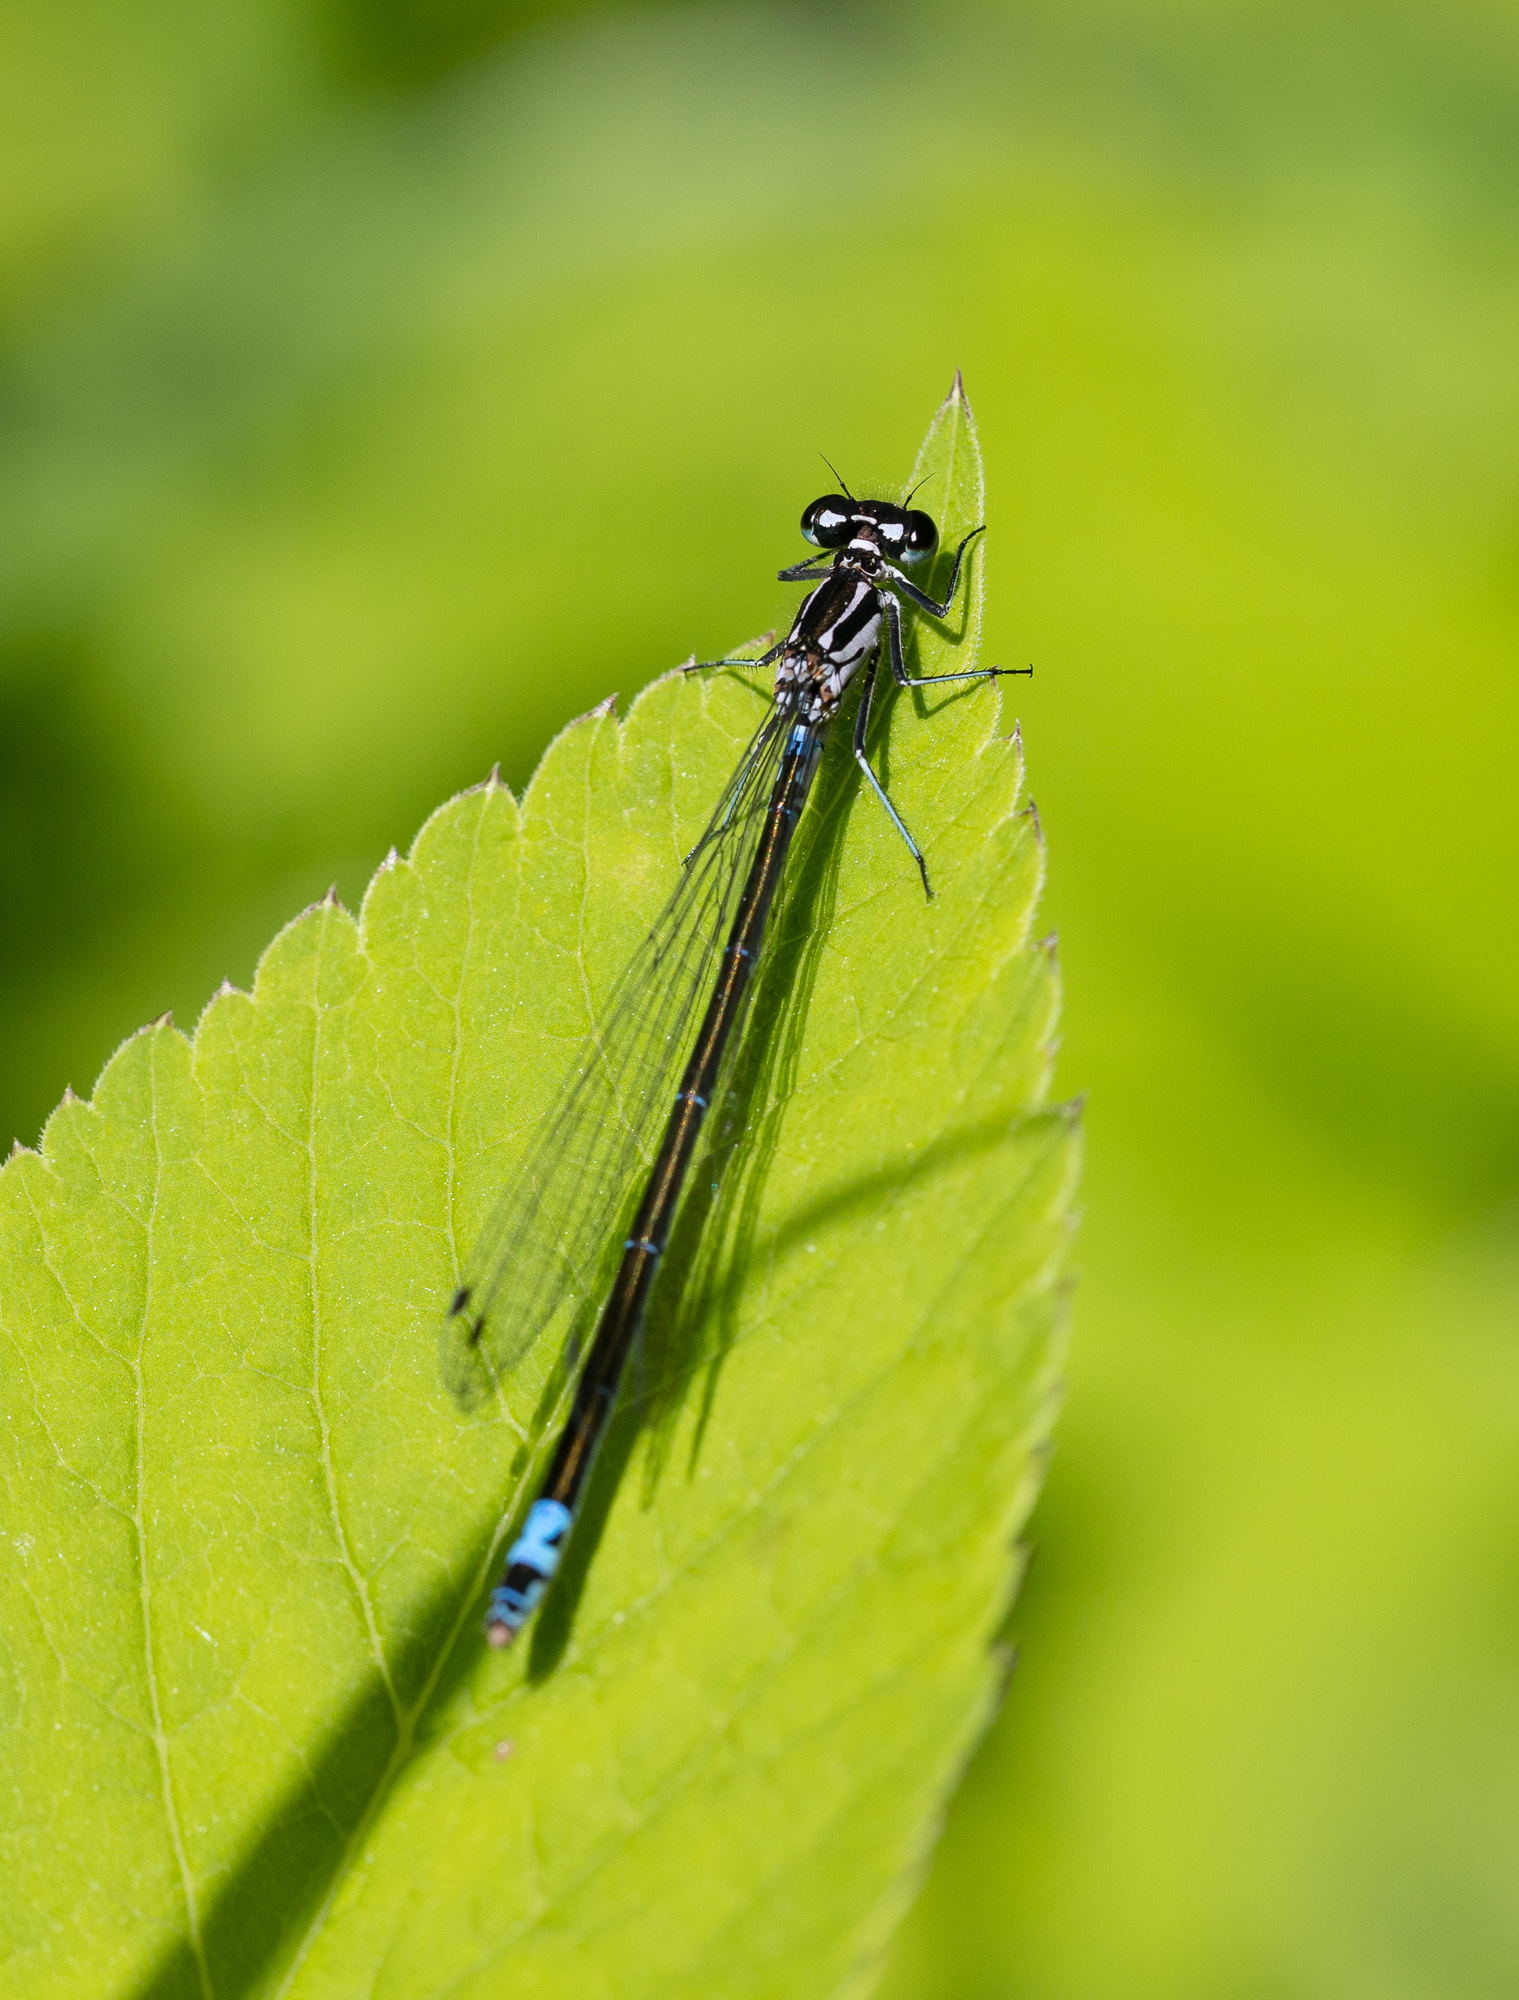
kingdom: Animalia
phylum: Arthropoda
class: Insecta
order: Odonata
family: Coenagrionidae
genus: Coenagrion
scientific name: Coenagrion pulchellum
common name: Variable bluet
